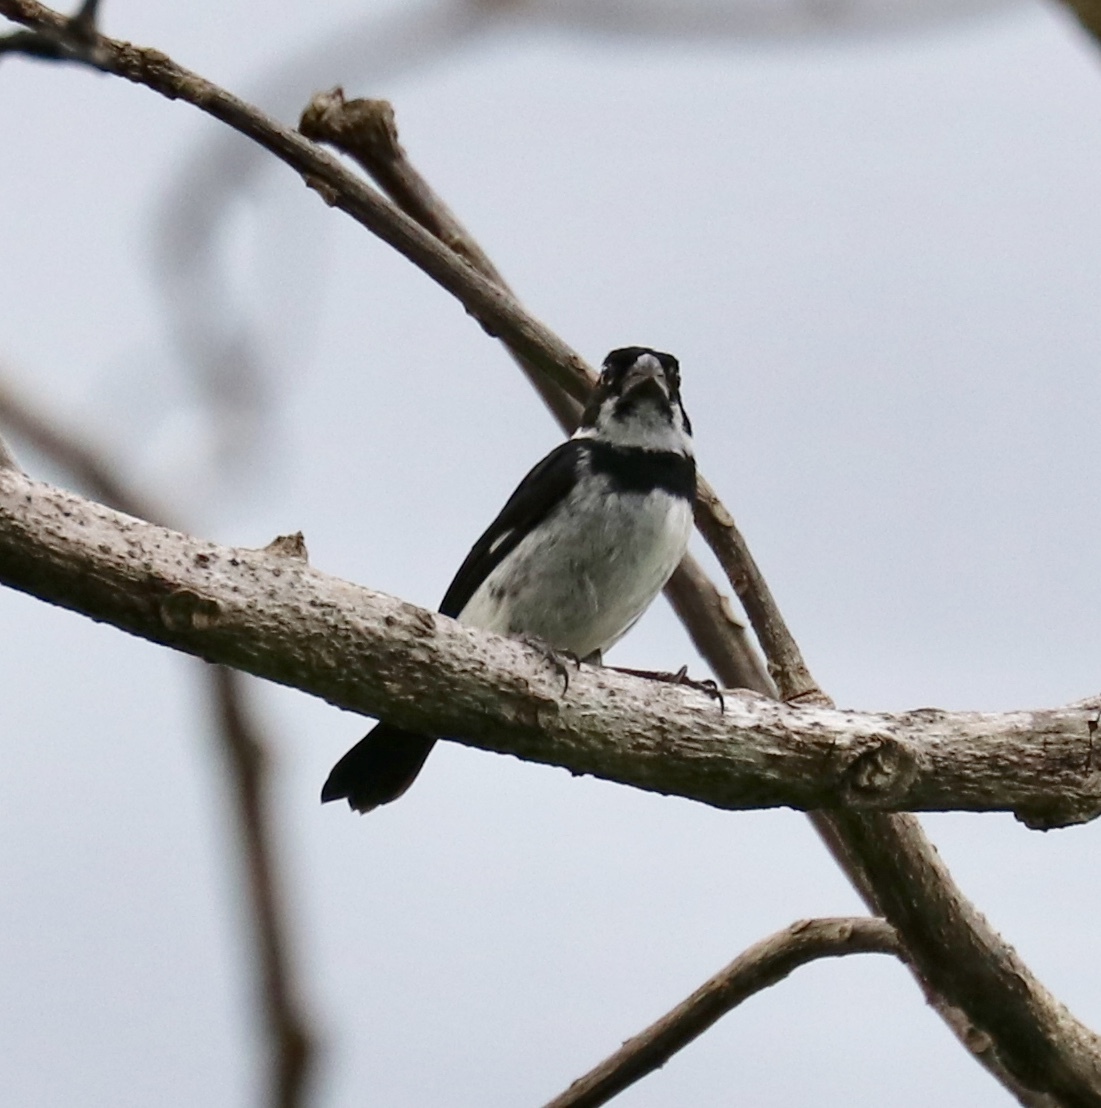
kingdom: Animalia
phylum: Chordata
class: Aves
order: Passeriformes
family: Thraupidae
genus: Sporophila
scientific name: Sporophila corvina
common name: Variable seedeater
